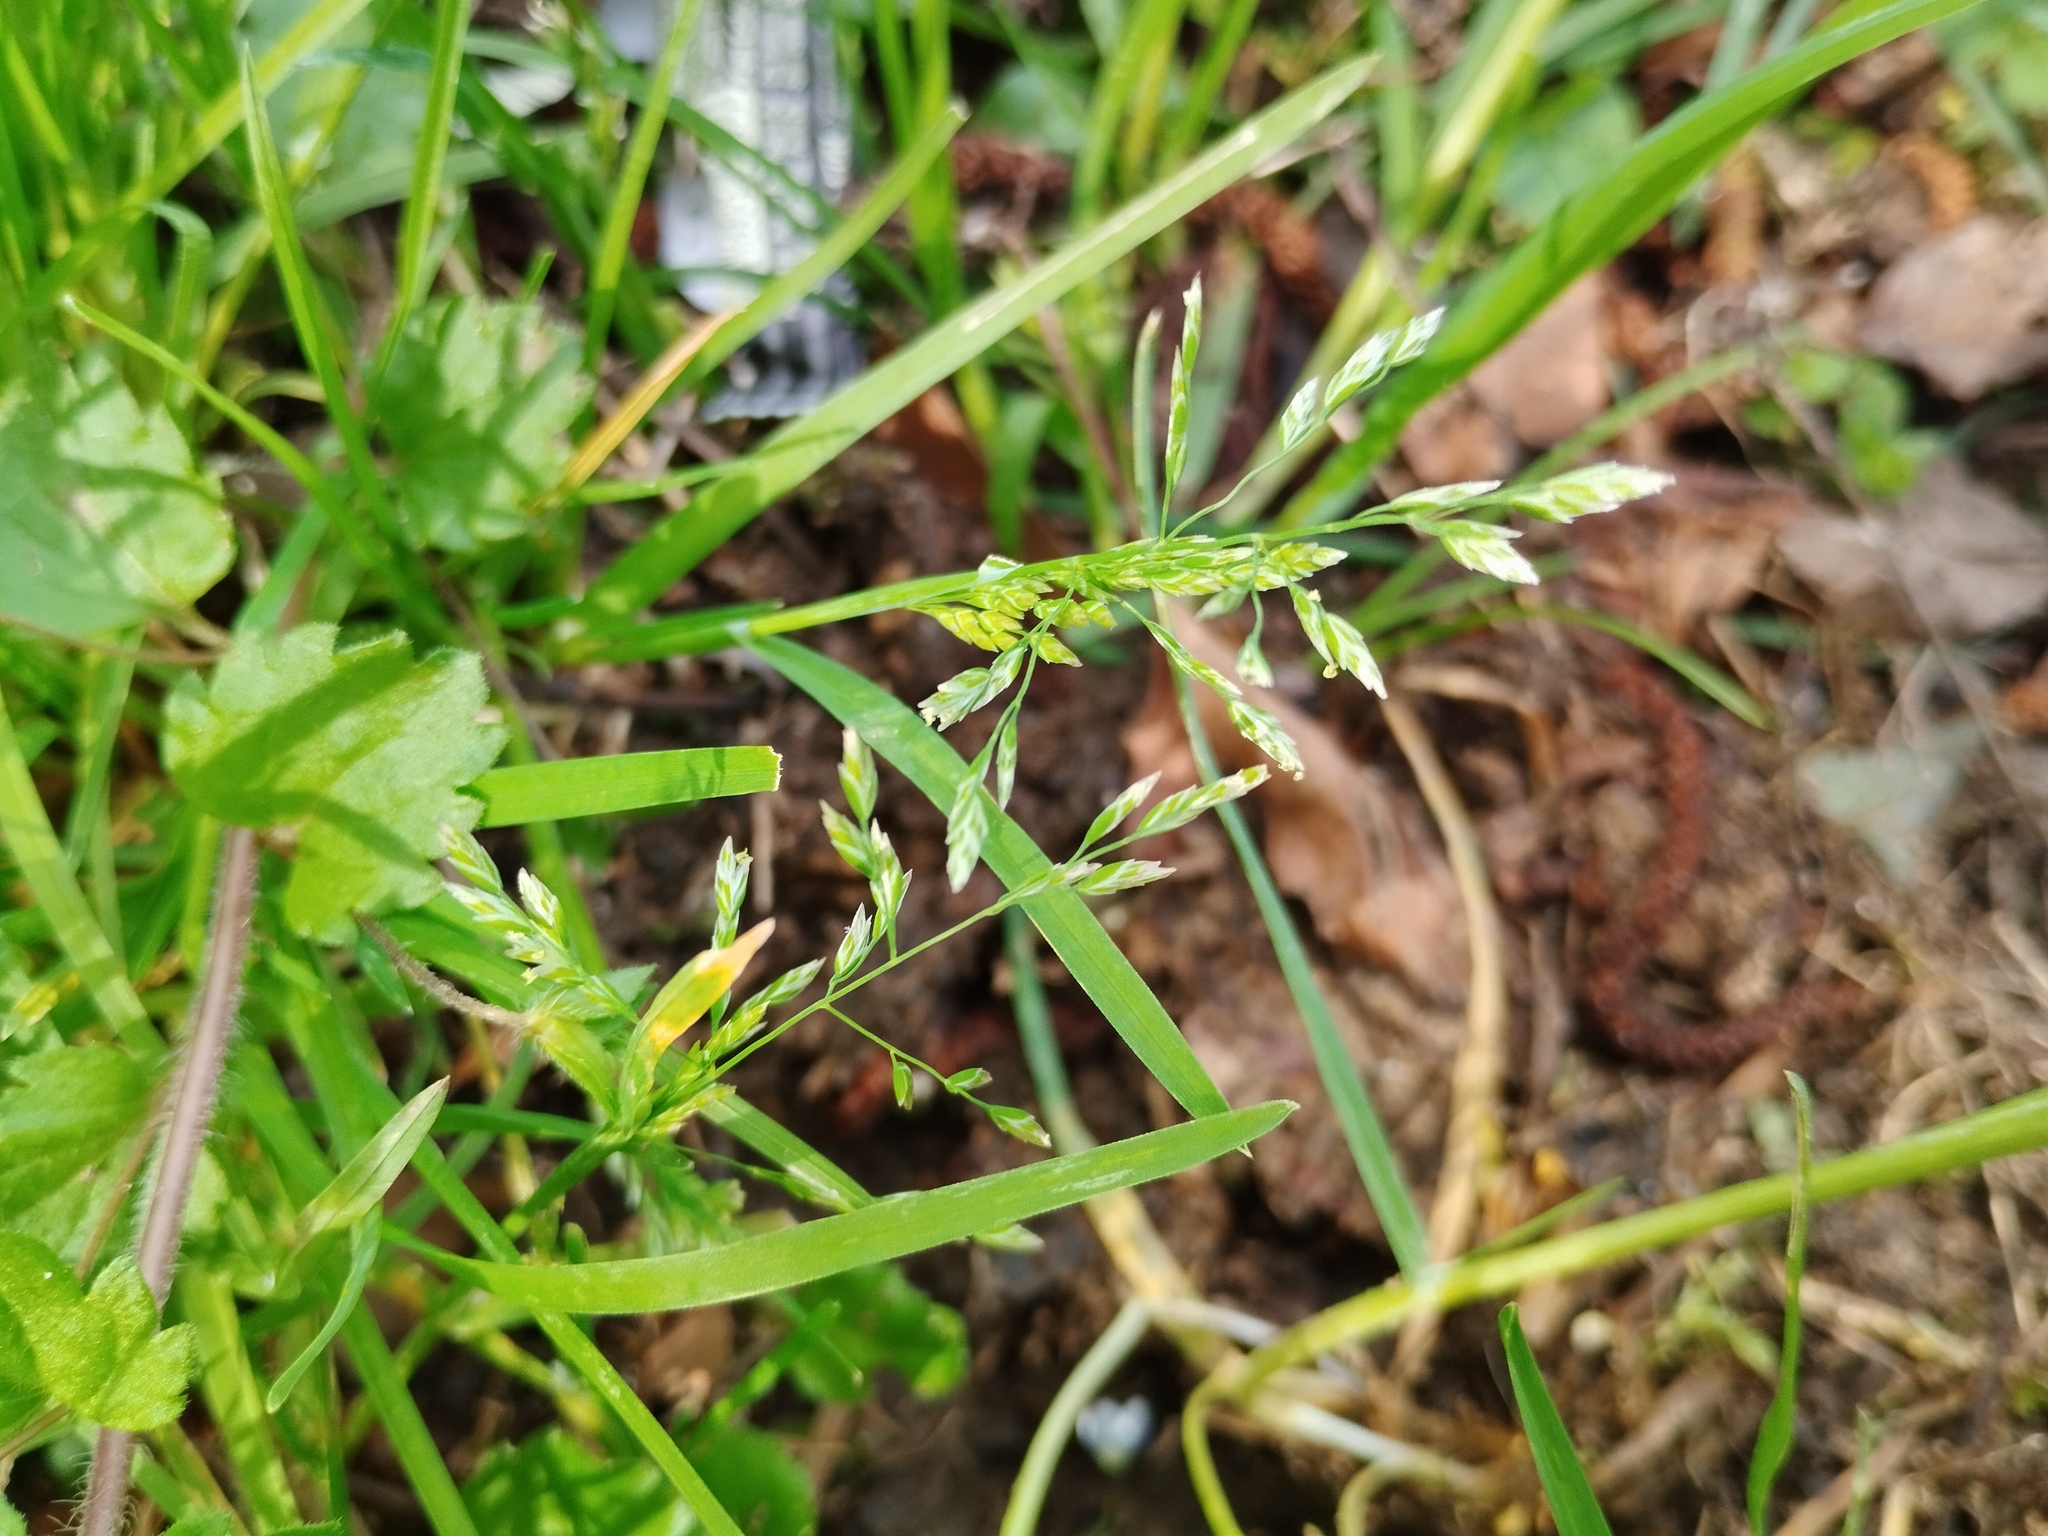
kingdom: Plantae
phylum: Tracheophyta
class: Liliopsida
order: Poales
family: Poaceae
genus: Poa
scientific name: Poa annua
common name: Annual bluegrass
